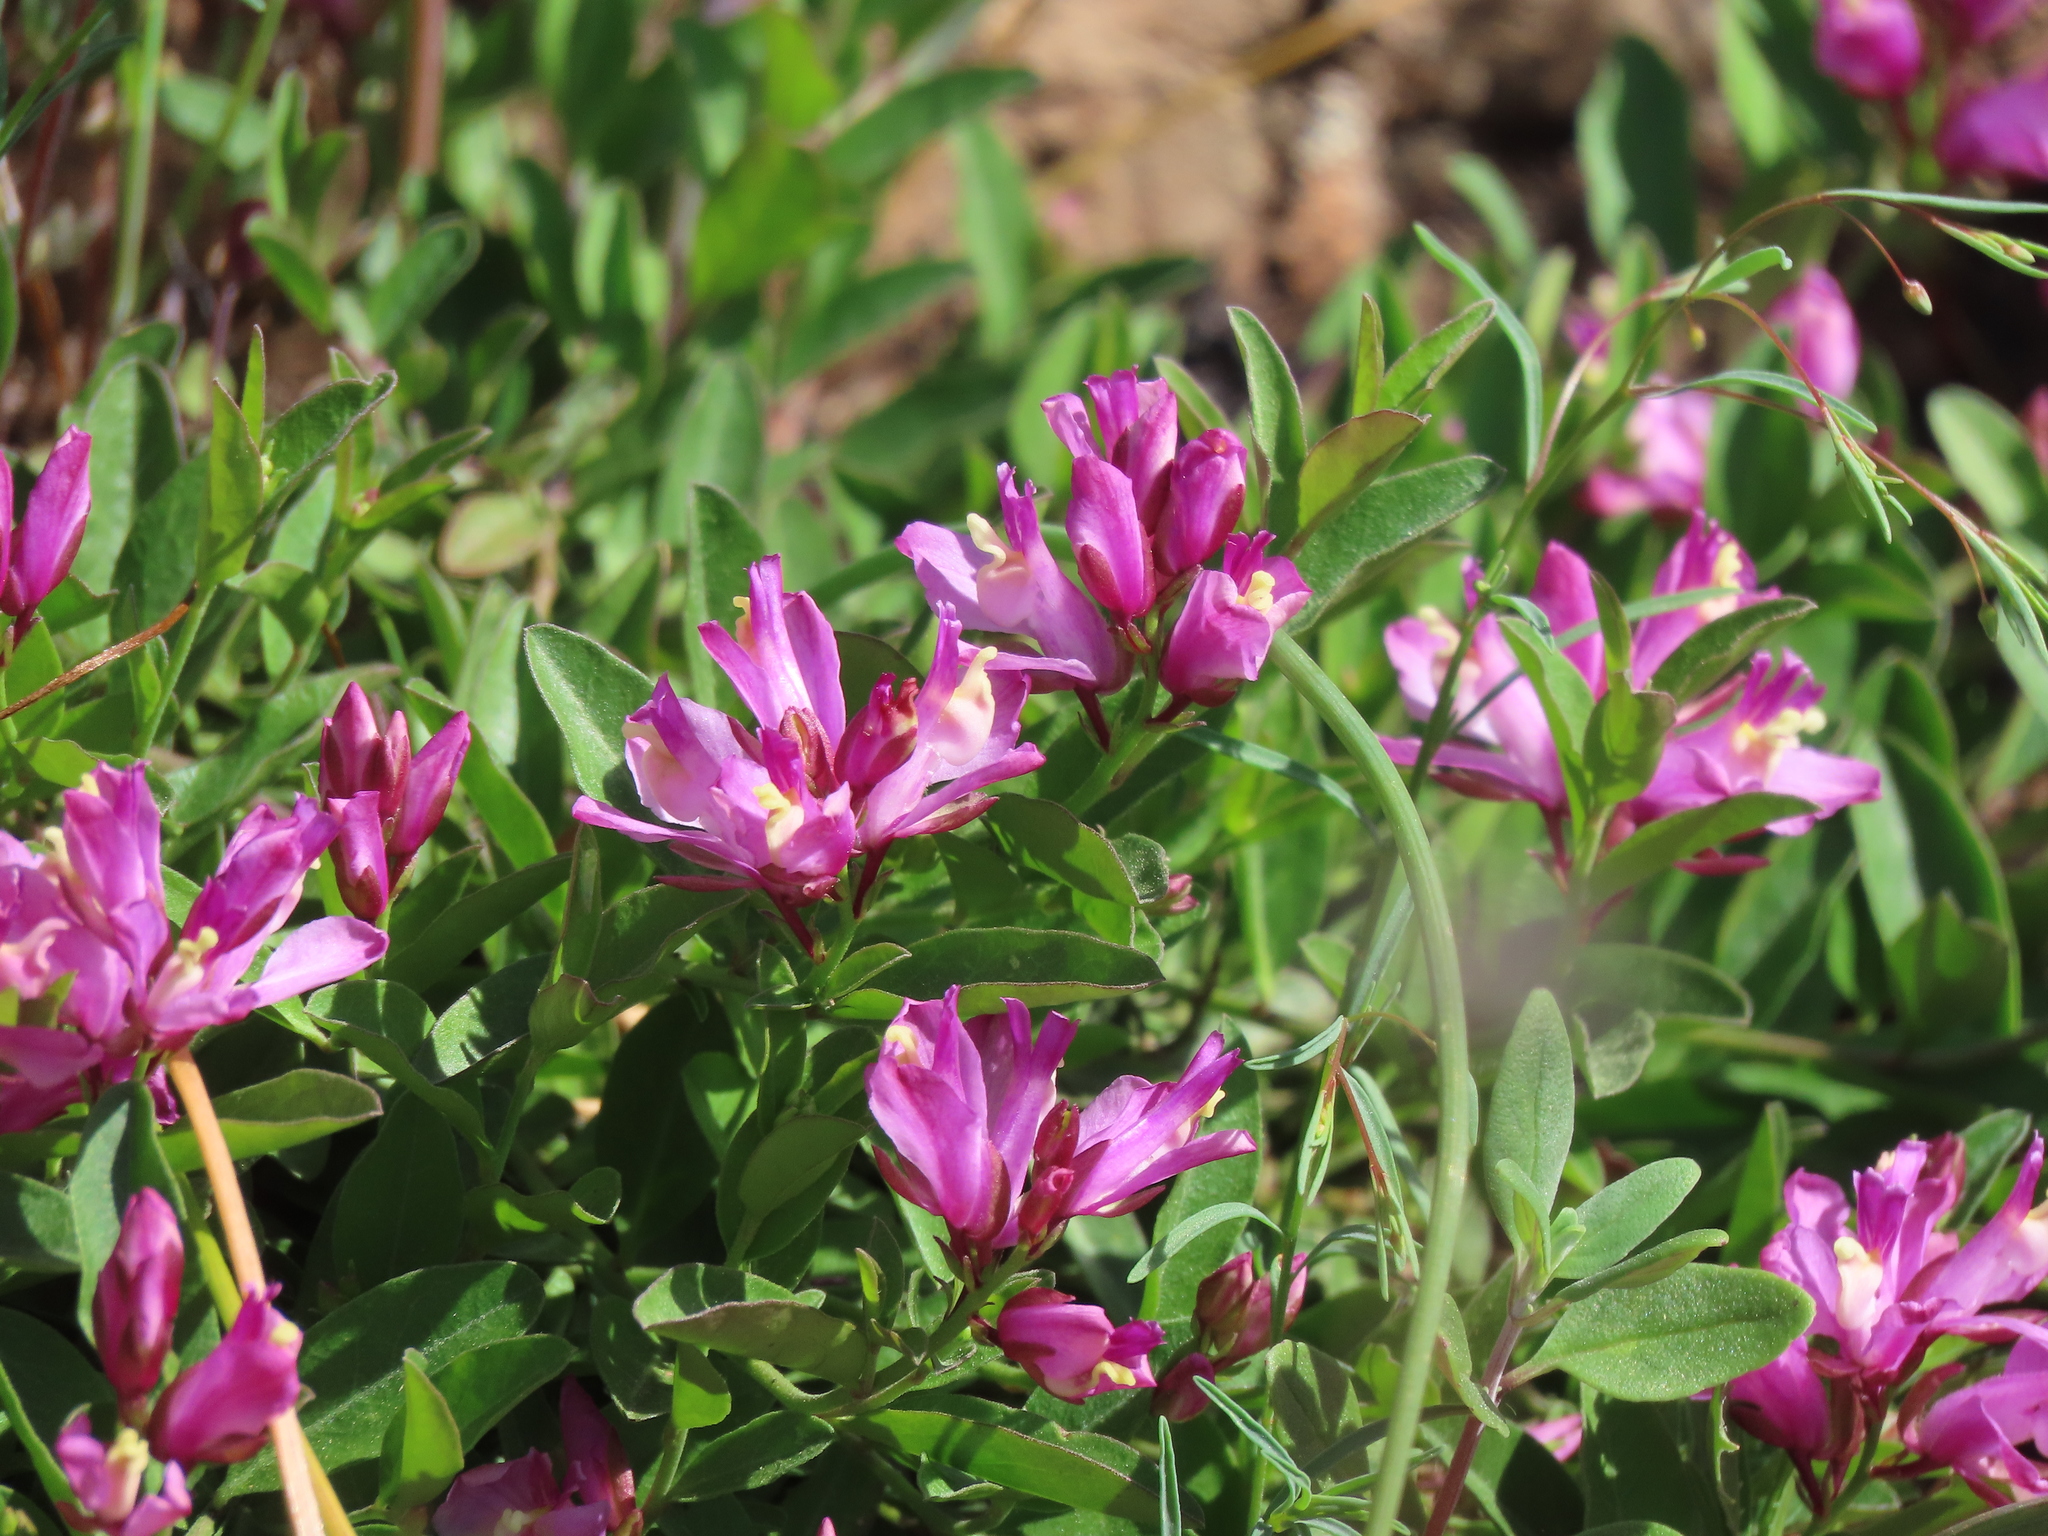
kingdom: Plantae
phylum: Tracheophyta
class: Magnoliopsida
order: Fabales
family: Polygalaceae
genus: Rhinotropis
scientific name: Rhinotropis californica
